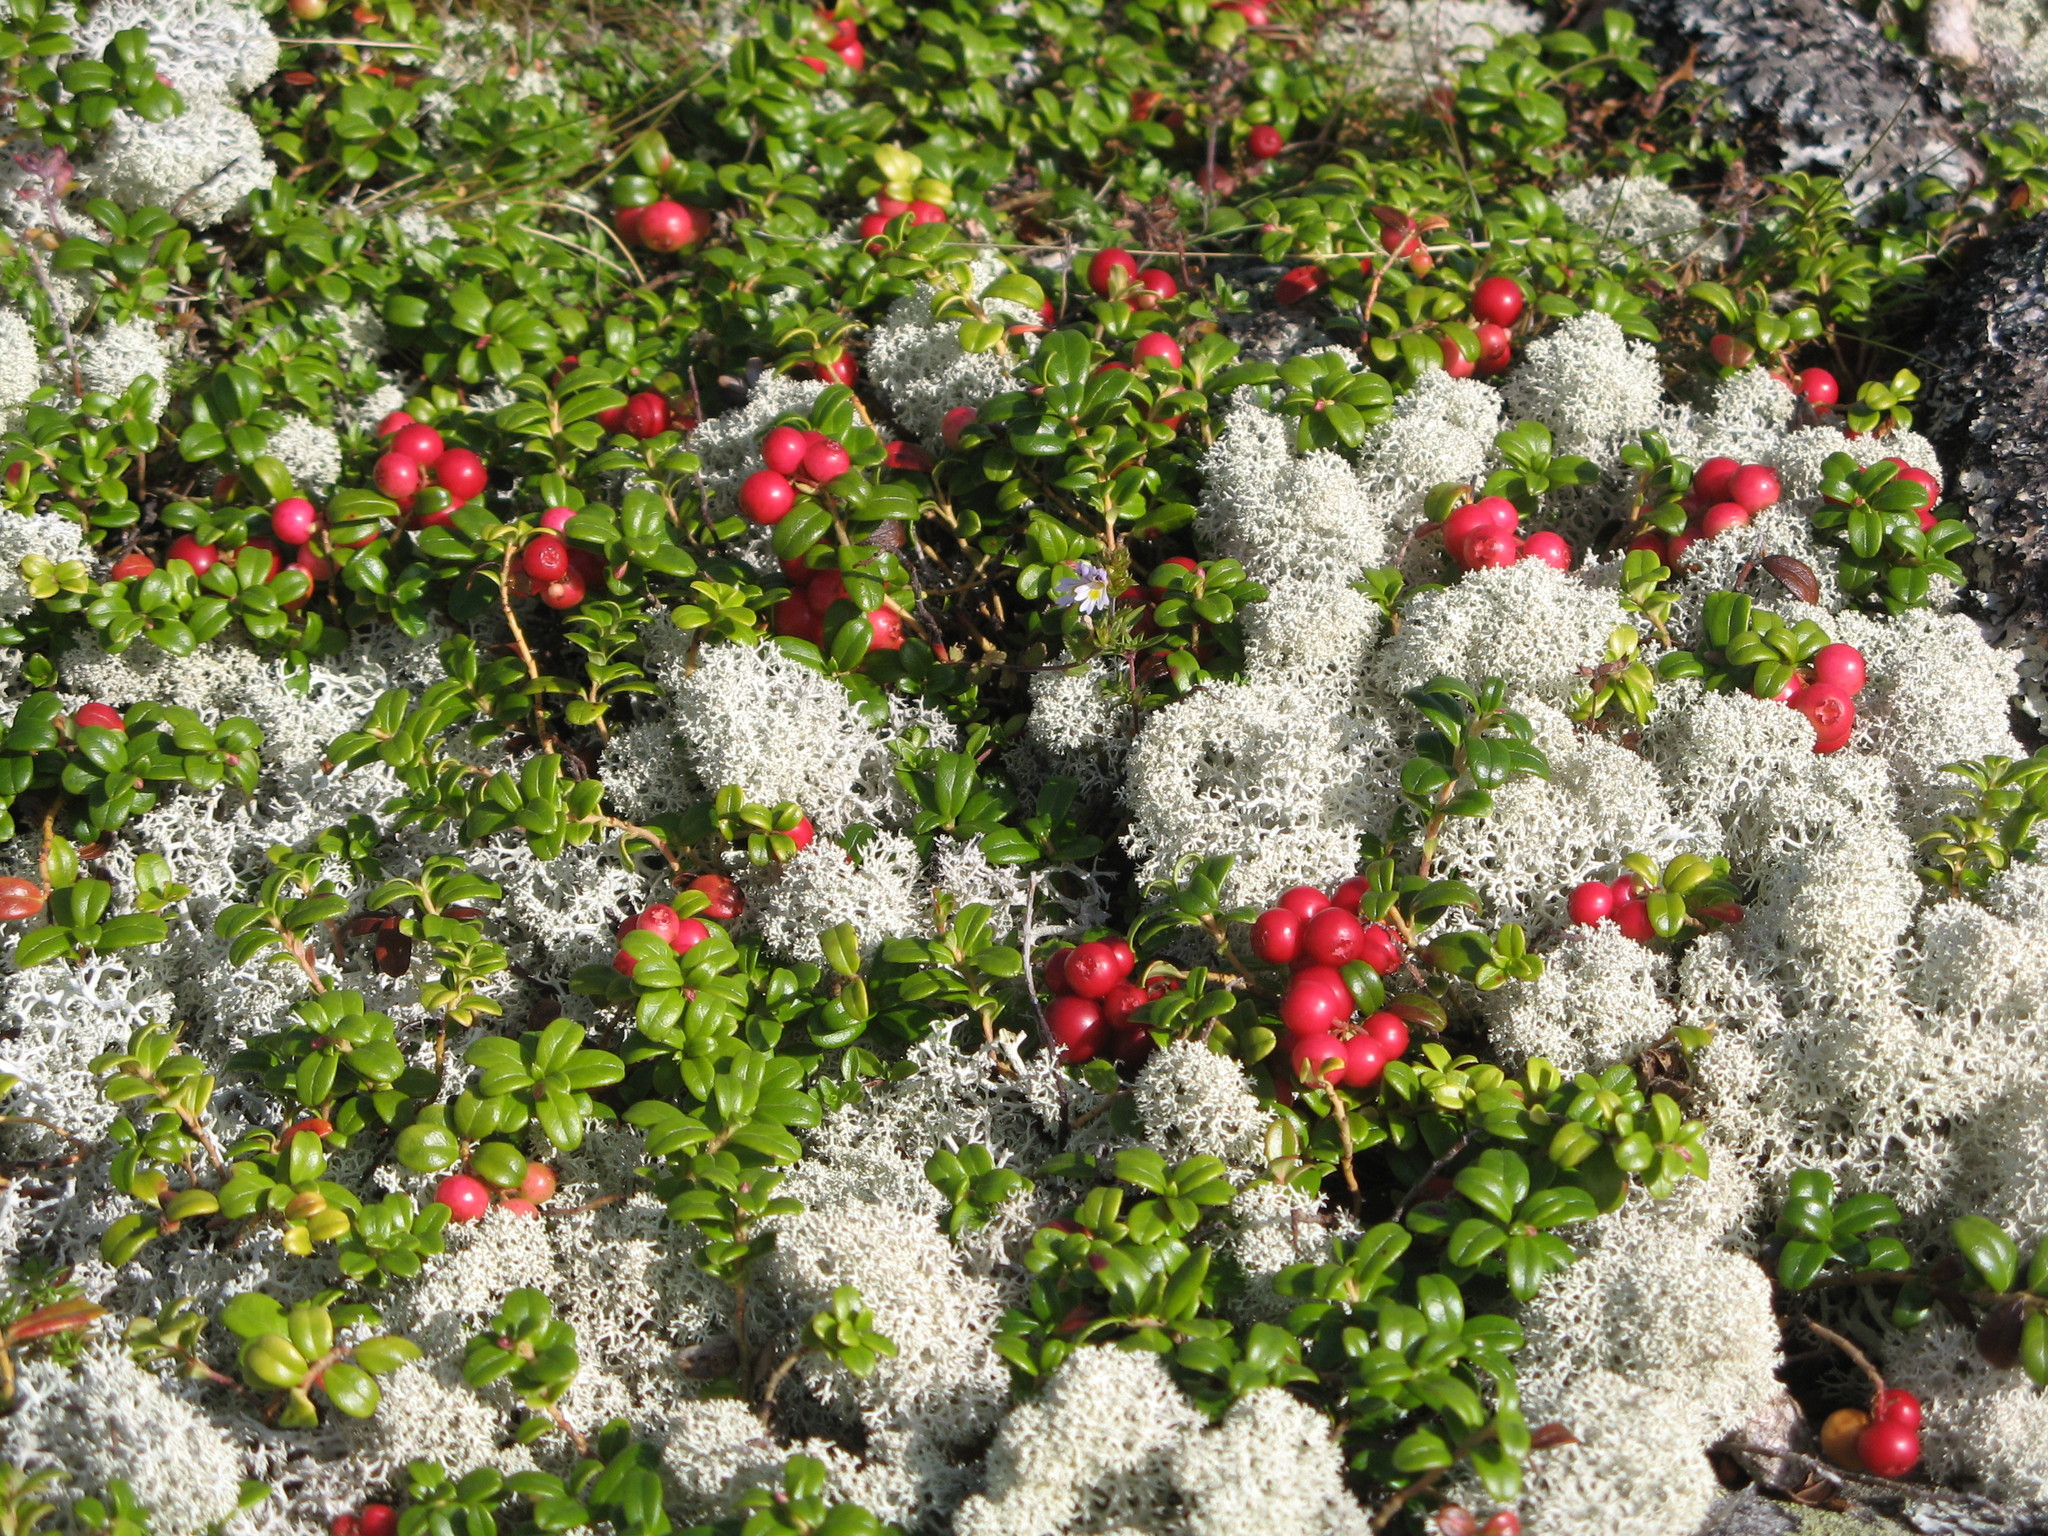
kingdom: Plantae
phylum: Tracheophyta
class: Magnoliopsida
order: Ericales
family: Ericaceae
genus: Vaccinium
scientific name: Vaccinium vitis-idaea
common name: Cowberry
